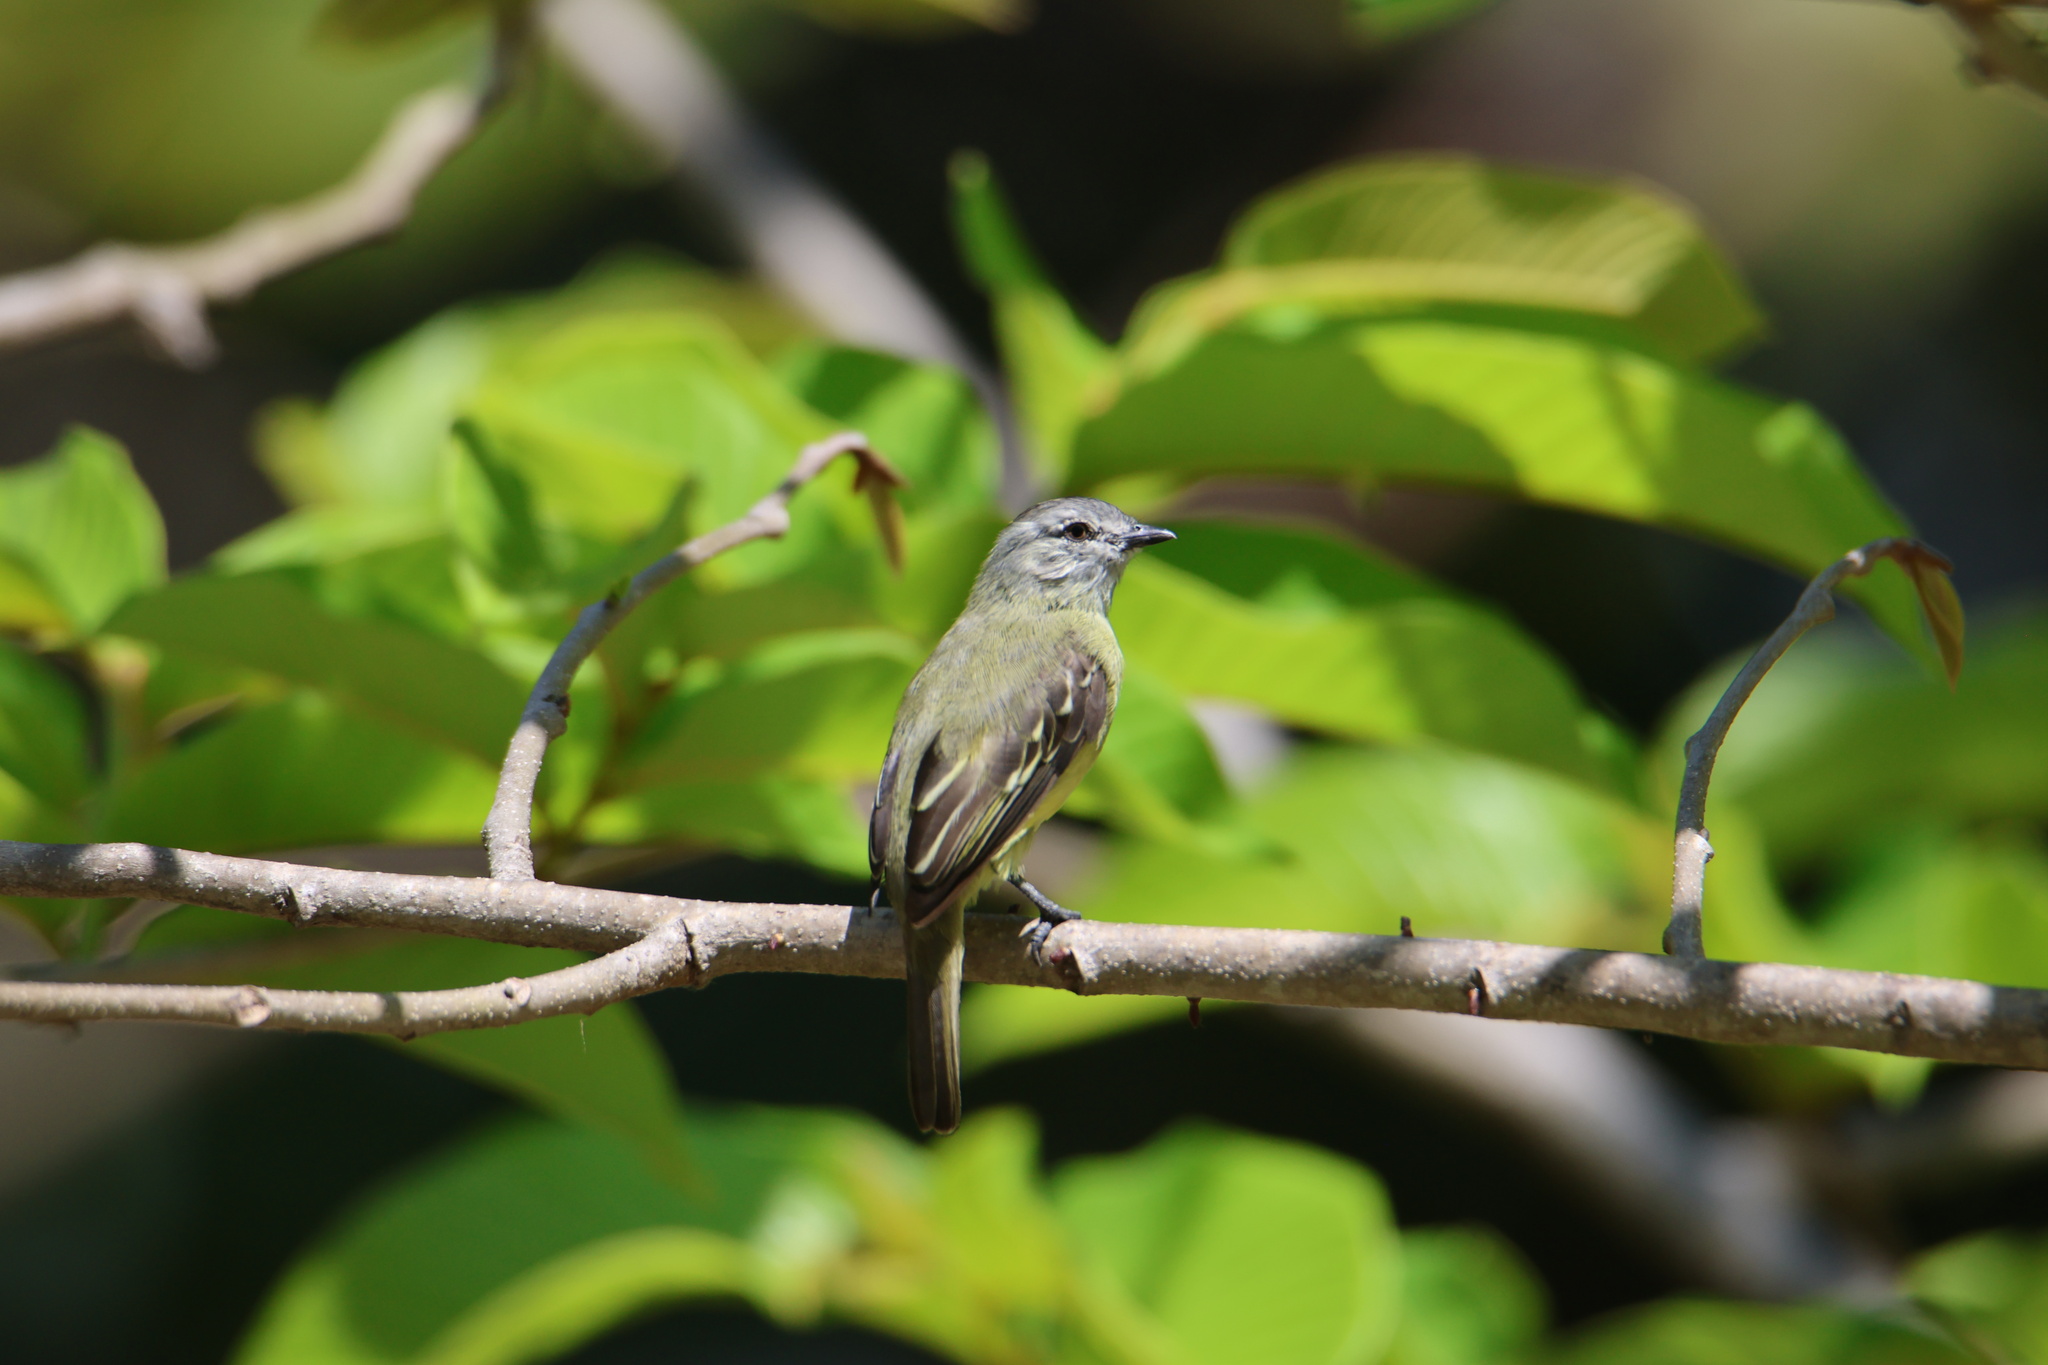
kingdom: Animalia
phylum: Chordata
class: Aves
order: Passeriformes
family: Tyrannidae
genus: Tyrannulus
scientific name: Tyrannulus elatus
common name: Yellow-crowned tyrannulet
